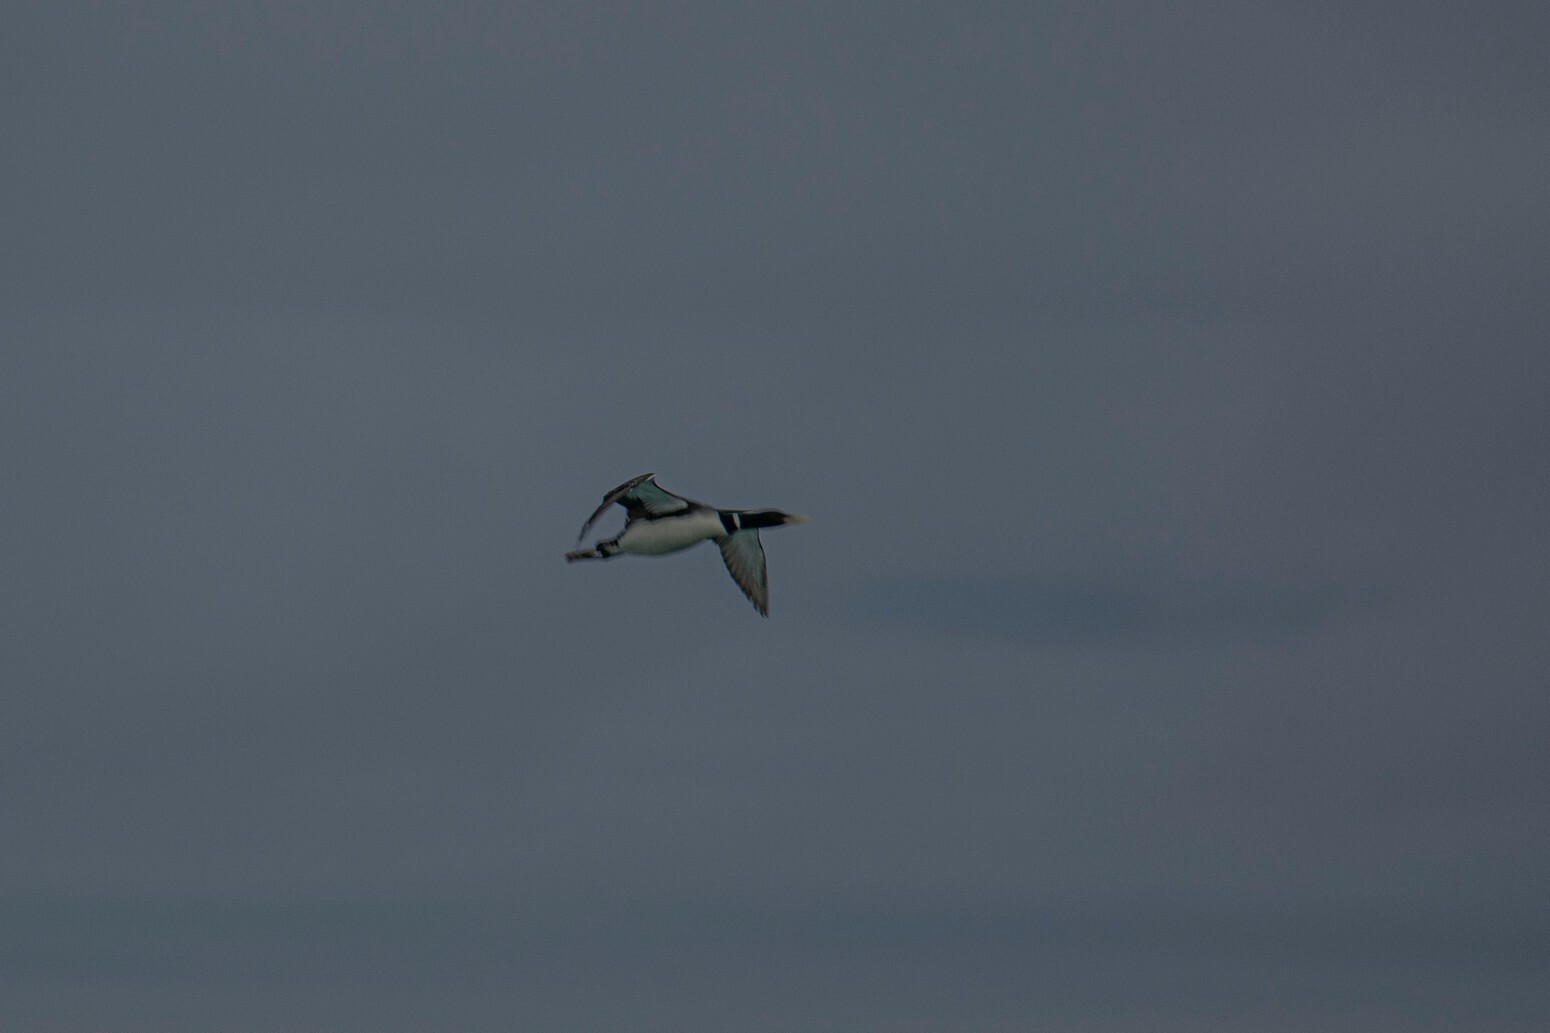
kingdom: Animalia
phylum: Chordata
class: Aves
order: Gaviiformes
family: Gaviidae
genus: Gavia
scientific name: Gavia adamsii
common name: Yellow-billed loon
